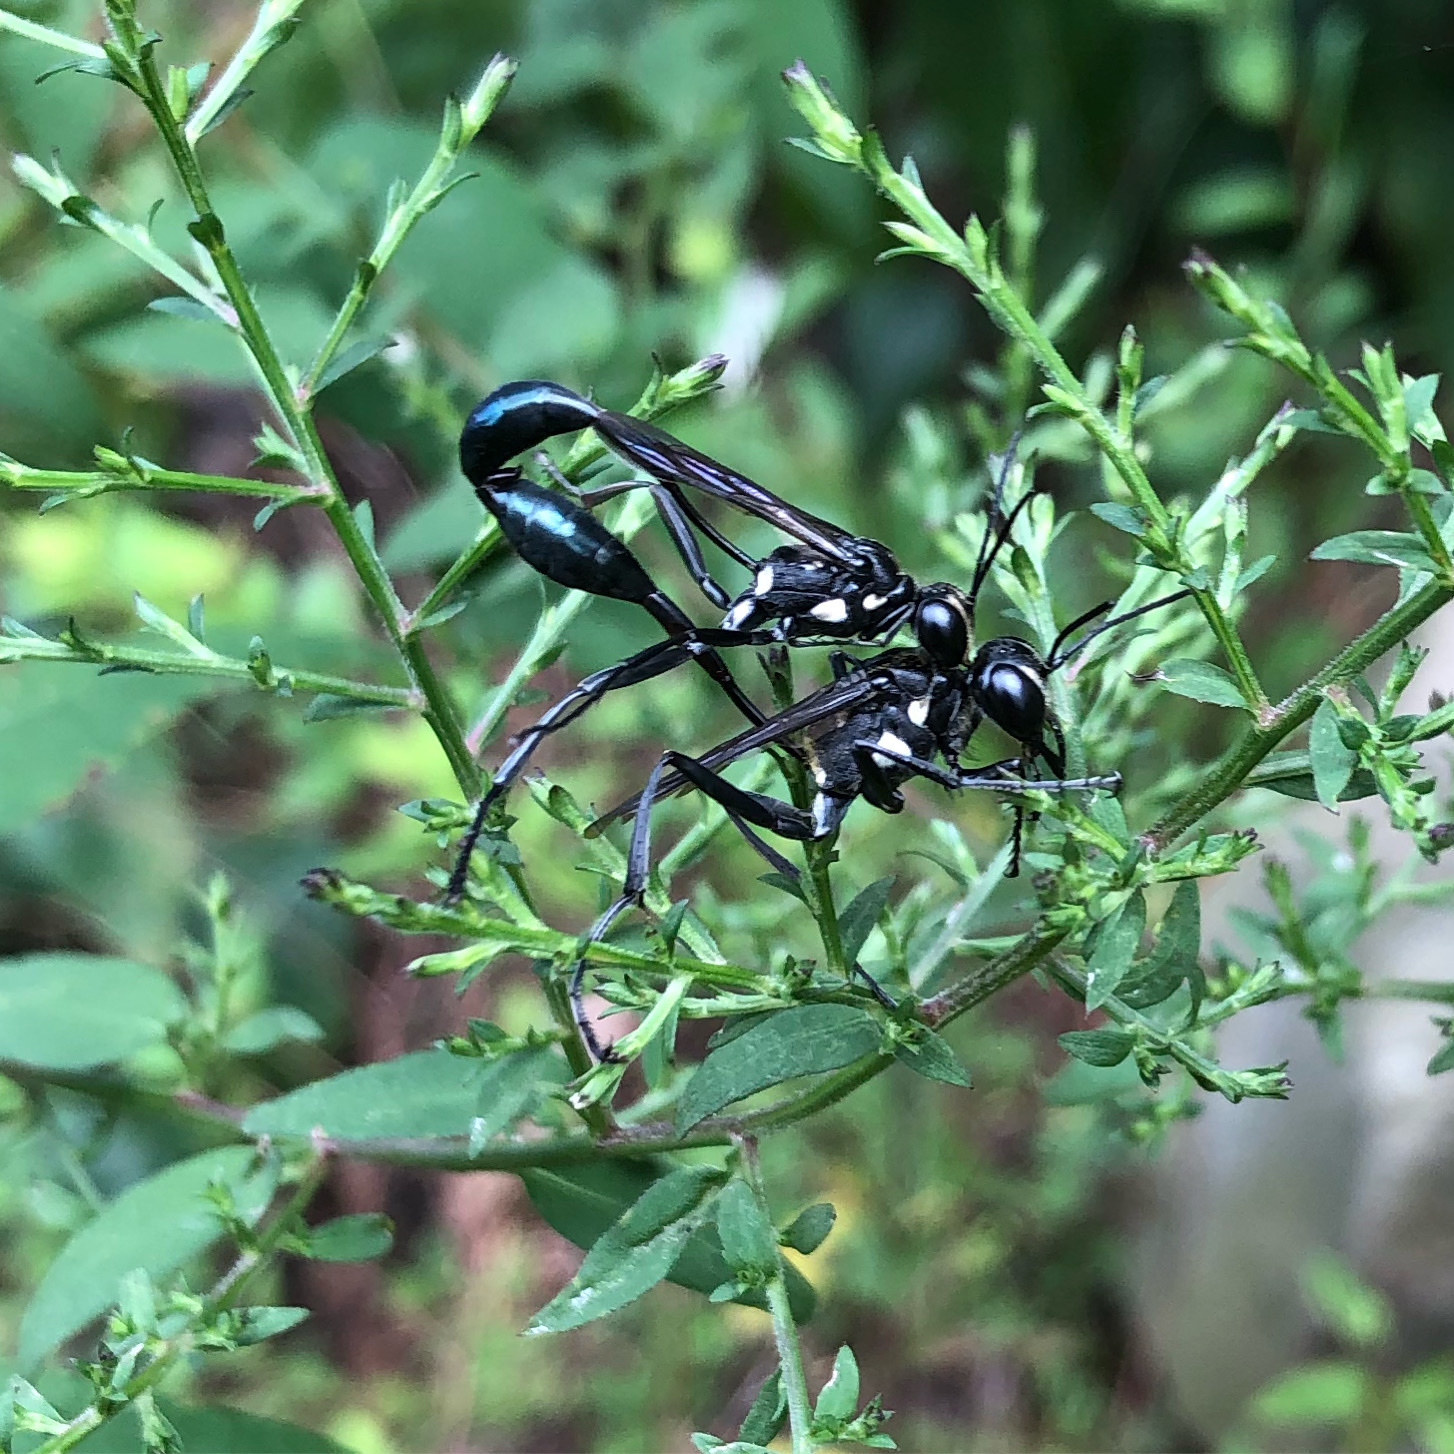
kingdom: Animalia
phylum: Arthropoda
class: Insecta
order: Hymenoptera
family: Sphecidae
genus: Eremnophila
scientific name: Eremnophila aureonotata
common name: Gold-marked thread-waisted wasp
